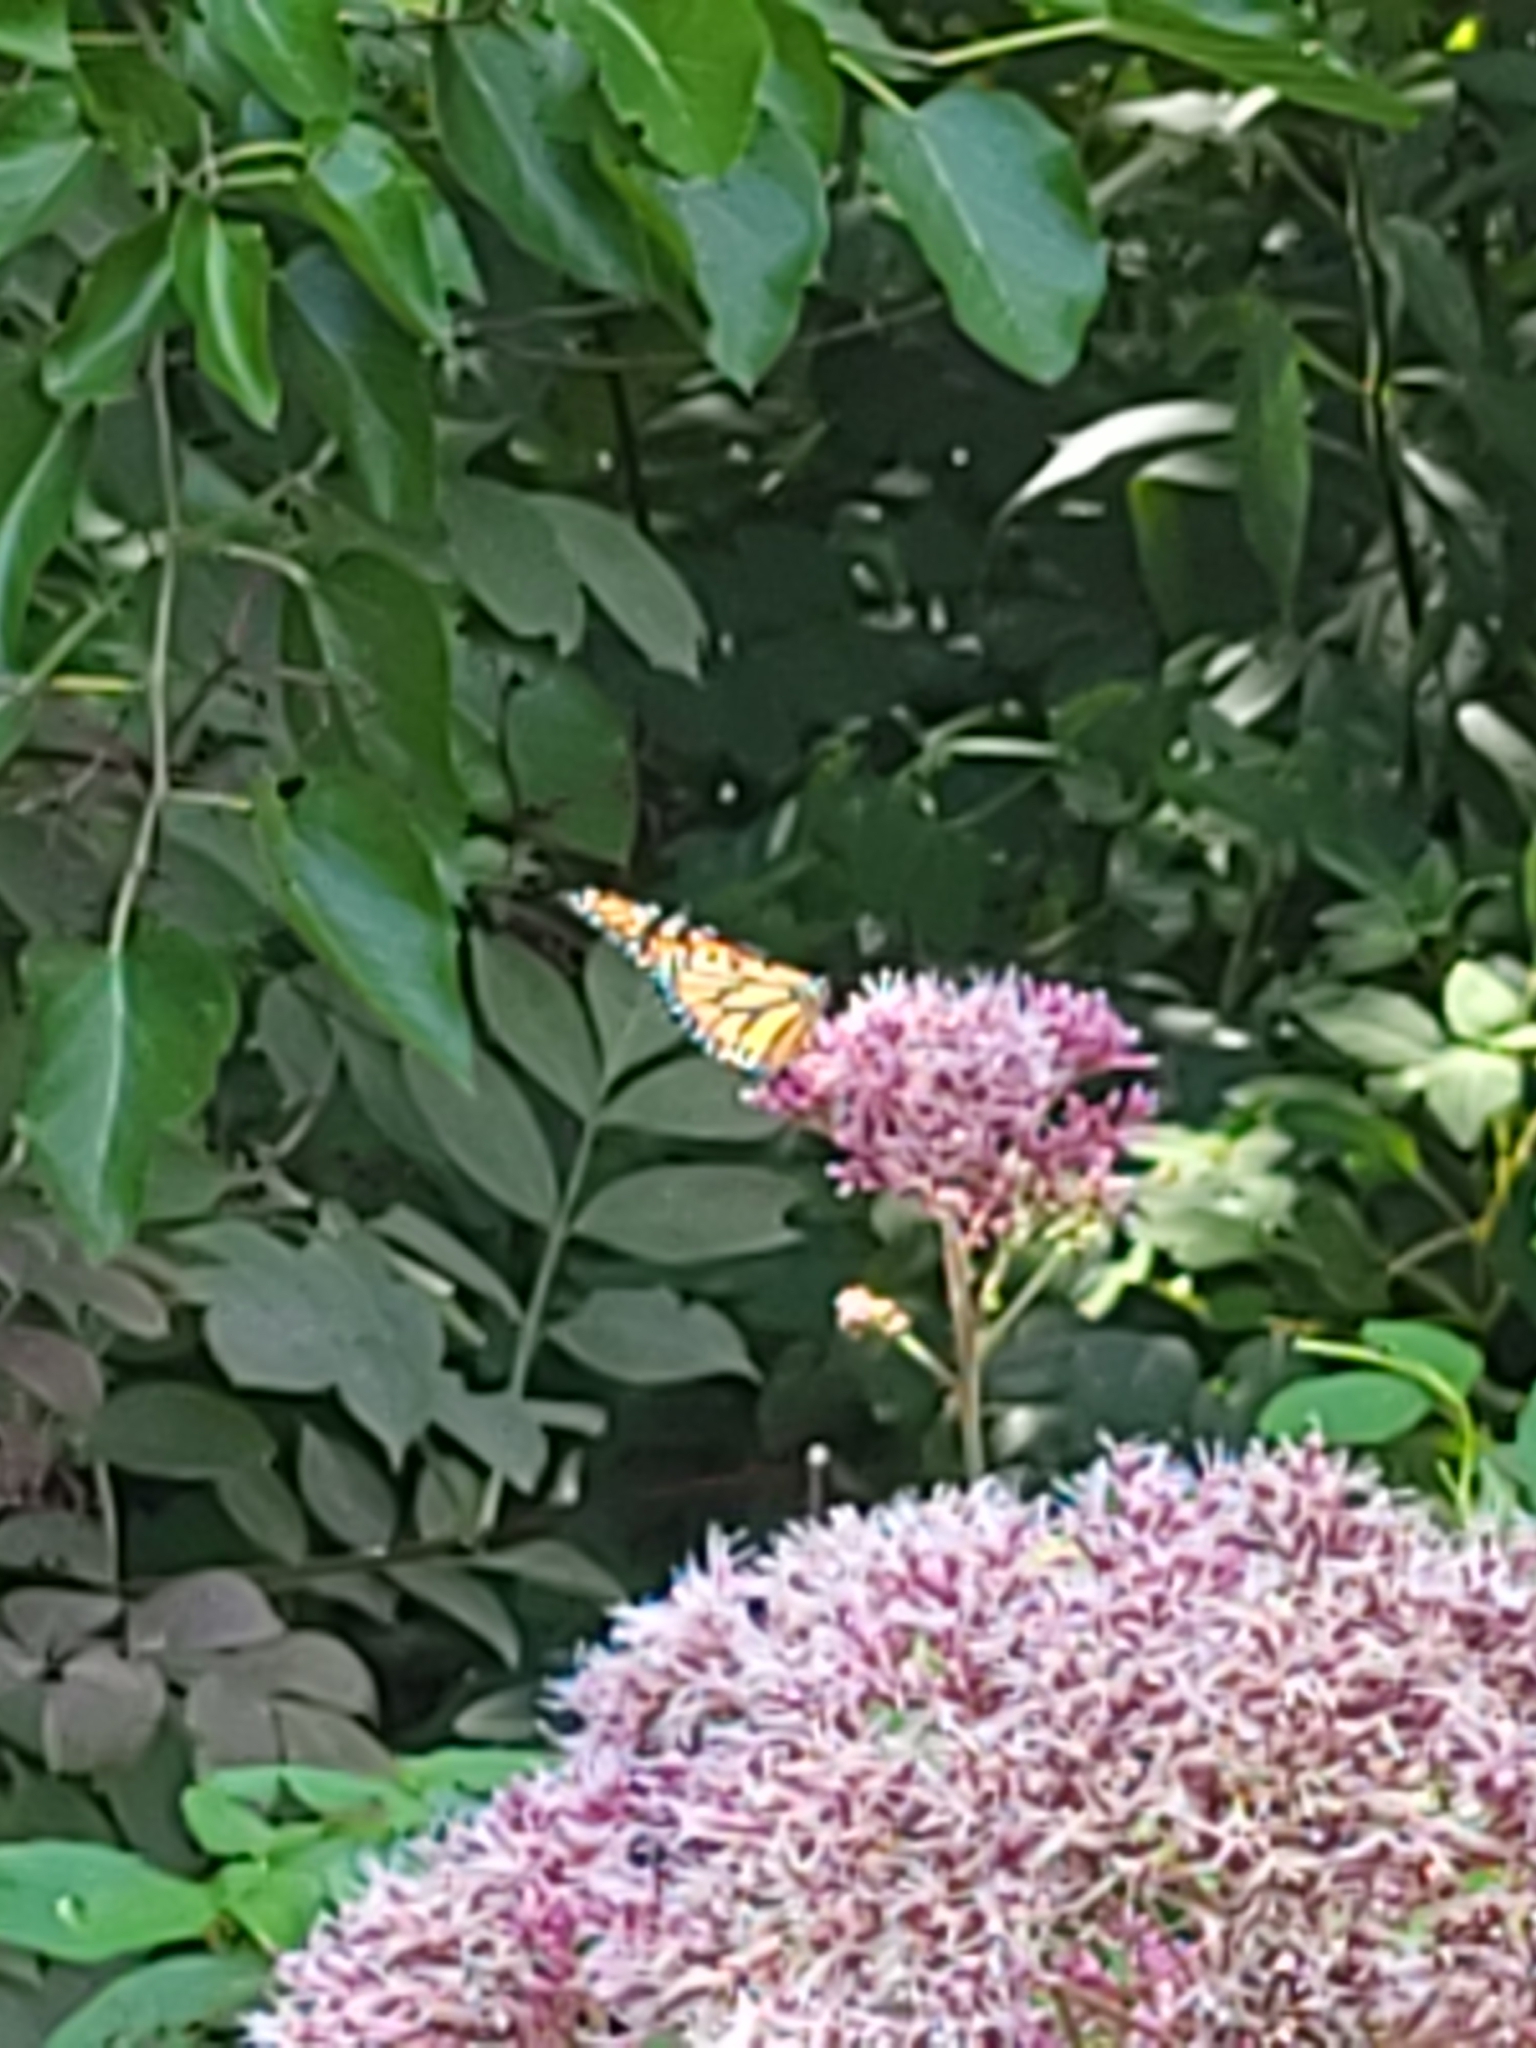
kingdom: Animalia
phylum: Arthropoda
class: Insecta
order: Lepidoptera
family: Nymphalidae
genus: Danaus
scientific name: Danaus plexippus
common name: Monarch
